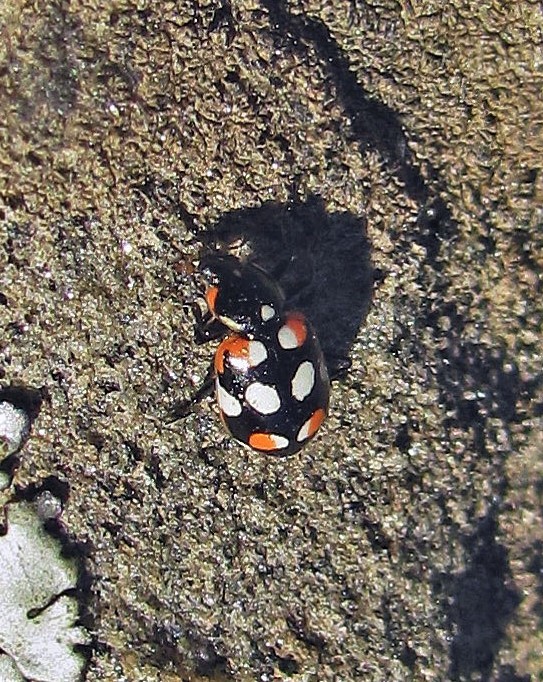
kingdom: Animalia
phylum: Arthropoda
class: Insecta
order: Coleoptera
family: Coccinellidae
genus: Eriopis
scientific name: Eriopis connexa
